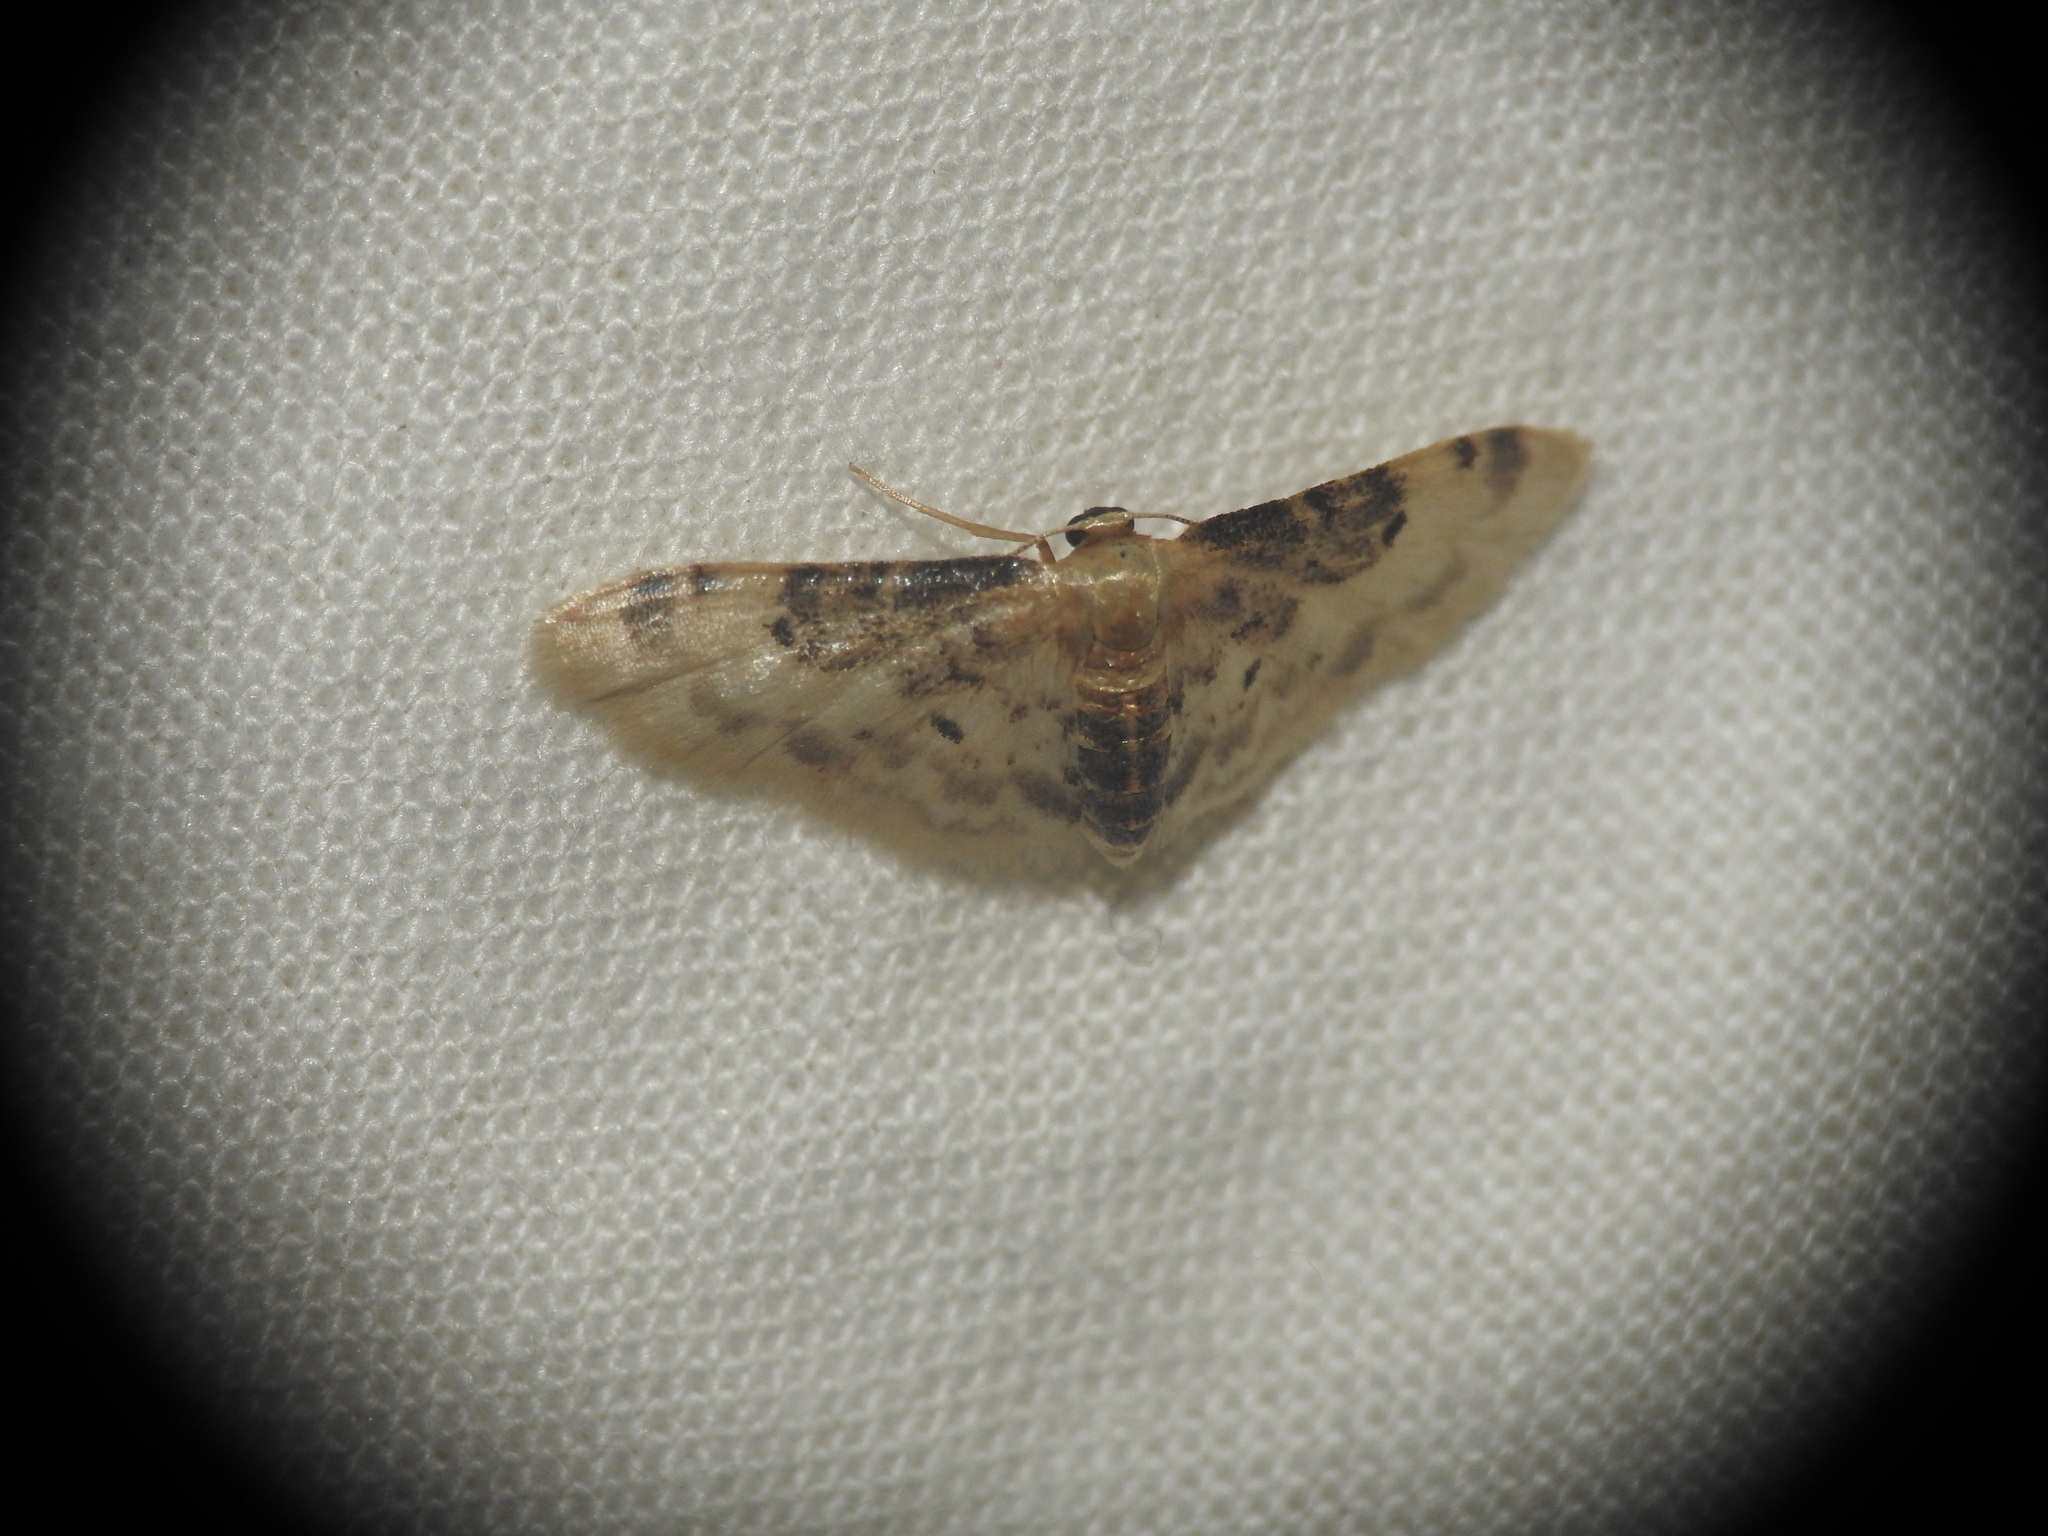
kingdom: Animalia
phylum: Arthropoda
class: Insecta
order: Lepidoptera
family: Geometridae
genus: Idaea
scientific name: Idaea filicata
